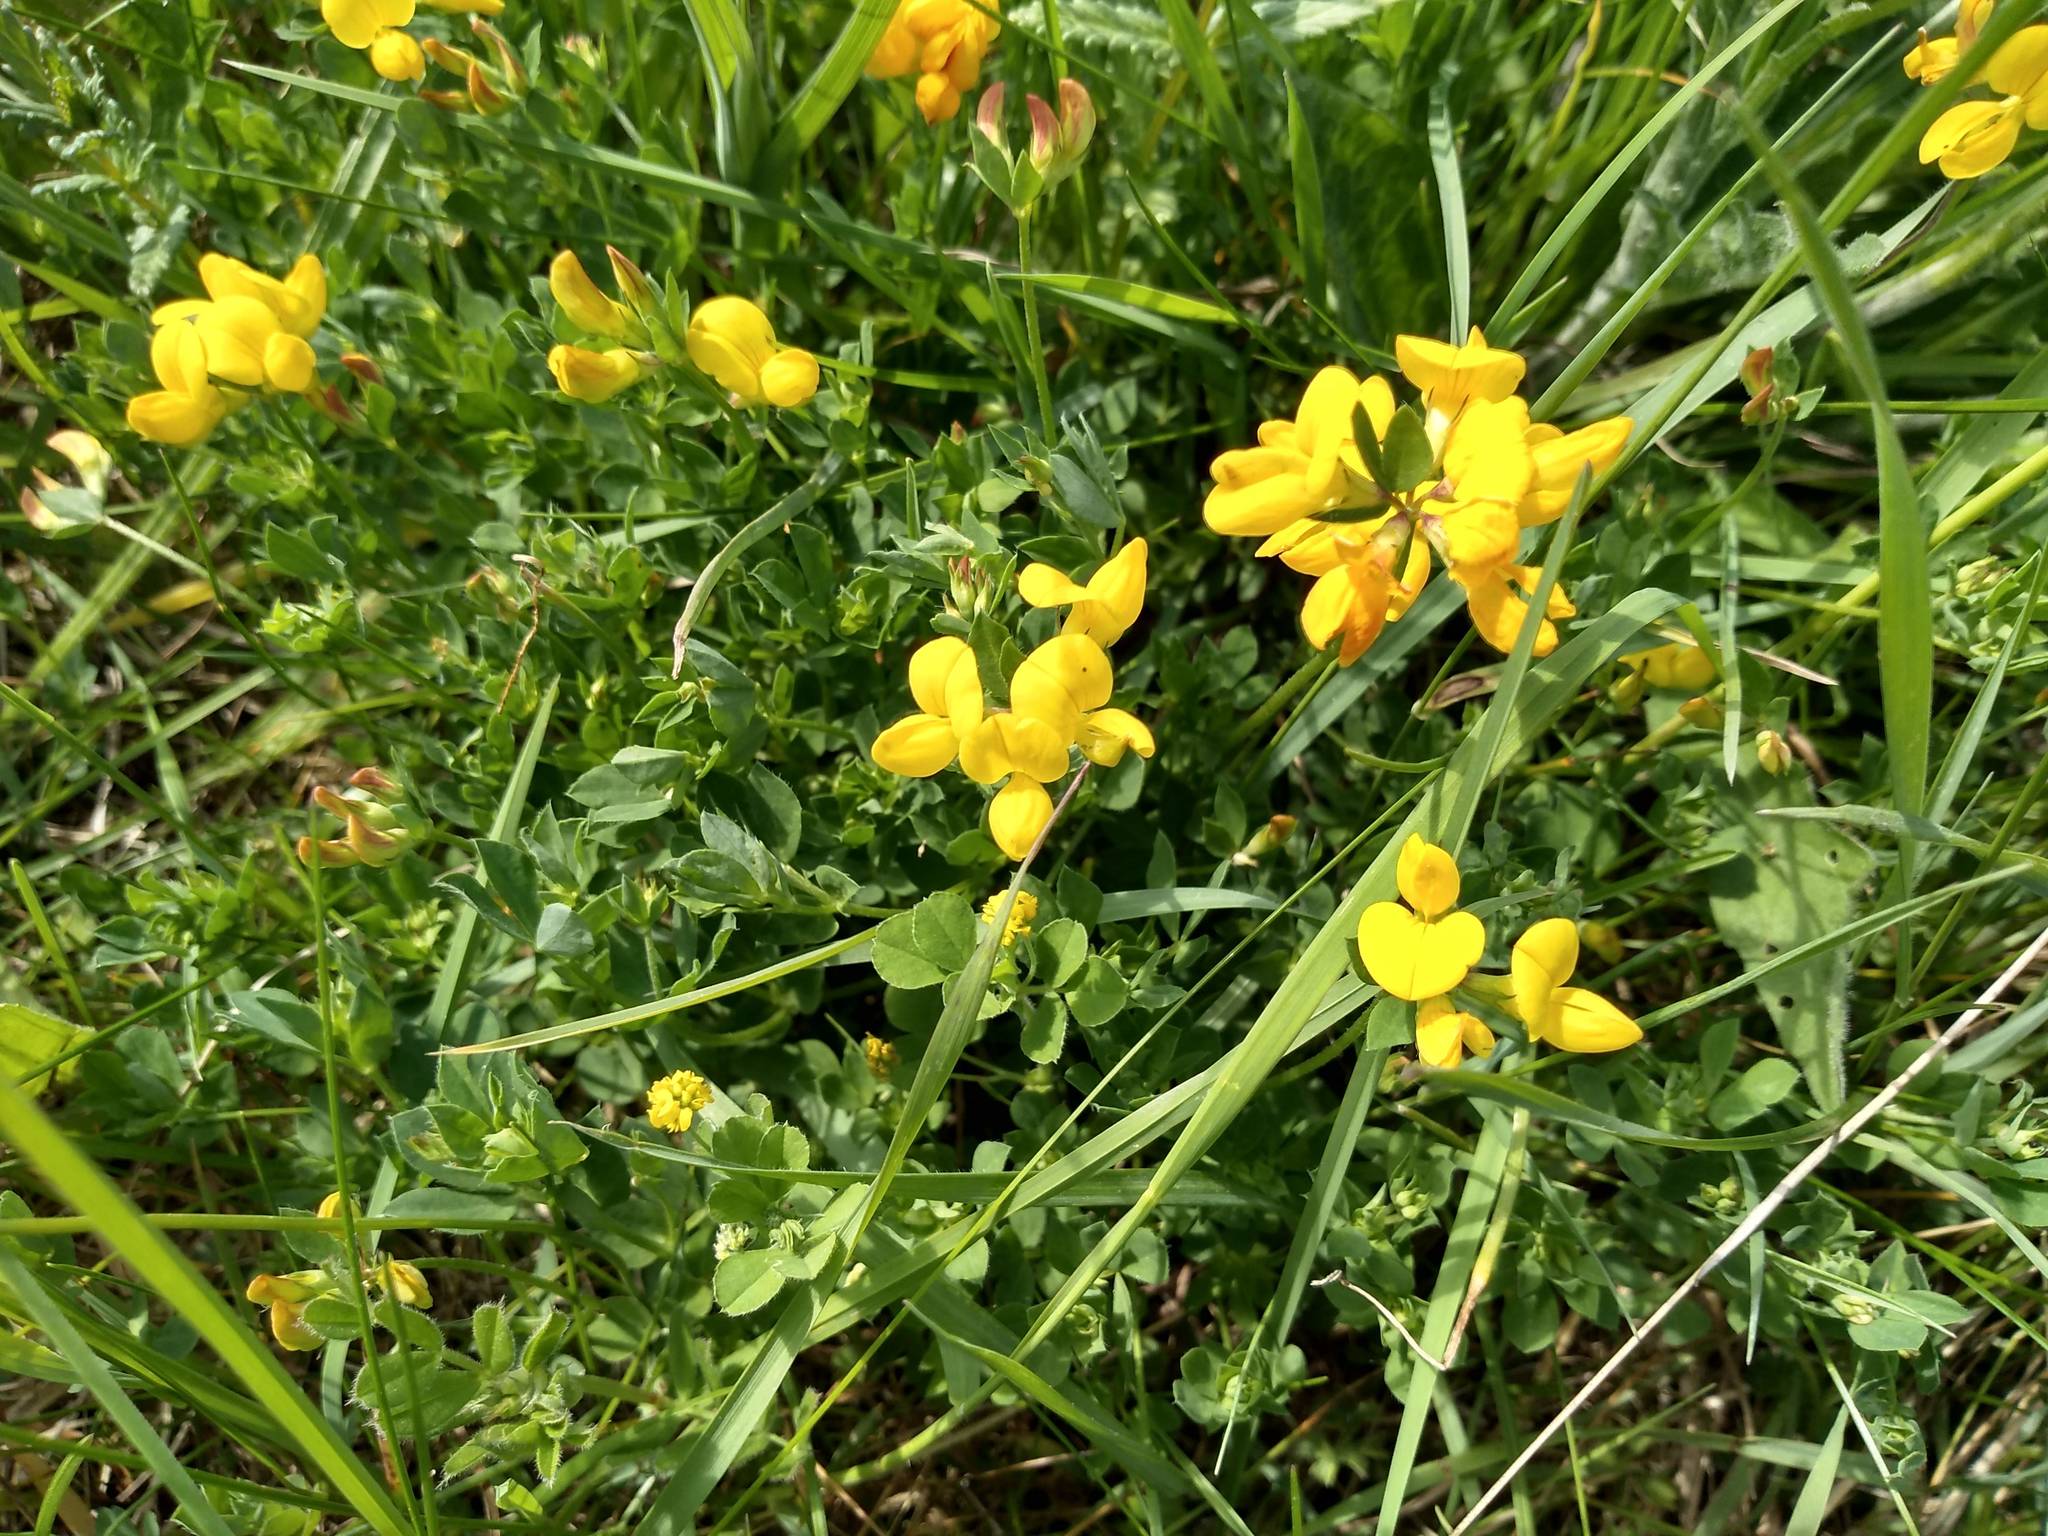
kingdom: Plantae
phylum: Tracheophyta
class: Magnoliopsida
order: Fabales
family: Fabaceae
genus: Lotus
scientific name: Lotus corniculatus
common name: Common bird's-foot-trefoil
